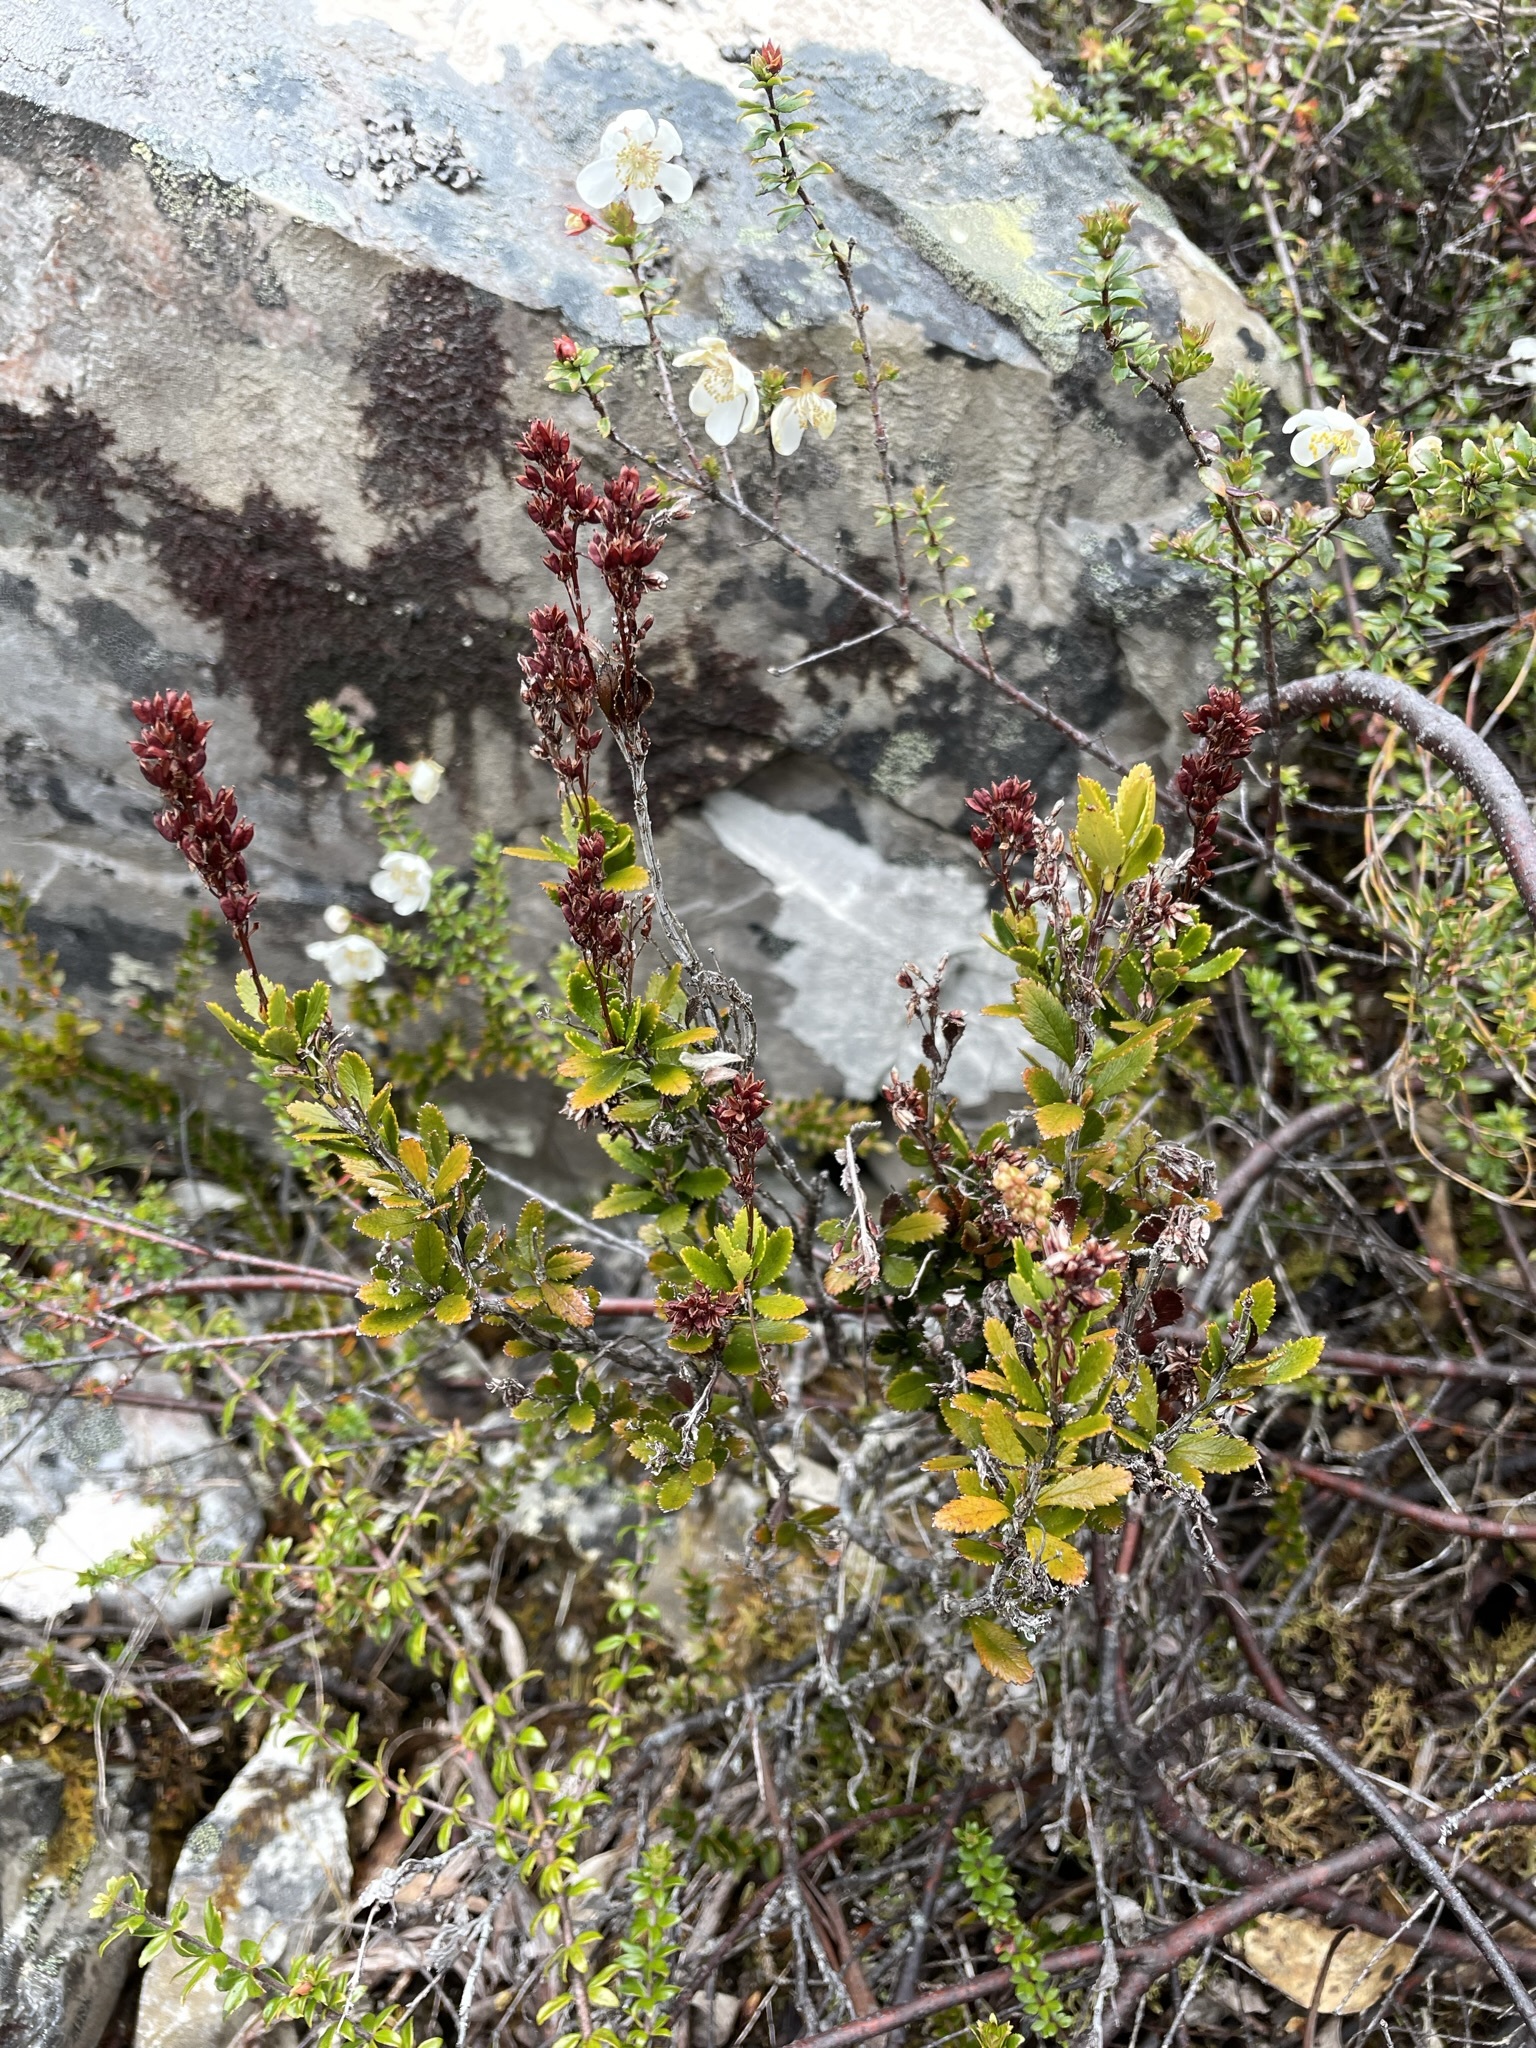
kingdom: Plantae
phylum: Tracheophyta
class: Magnoliopsida
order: Saxifragales
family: Tetracarpaeaceae
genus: Tetracarpaea
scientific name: Tetracarpaea tasmanica
